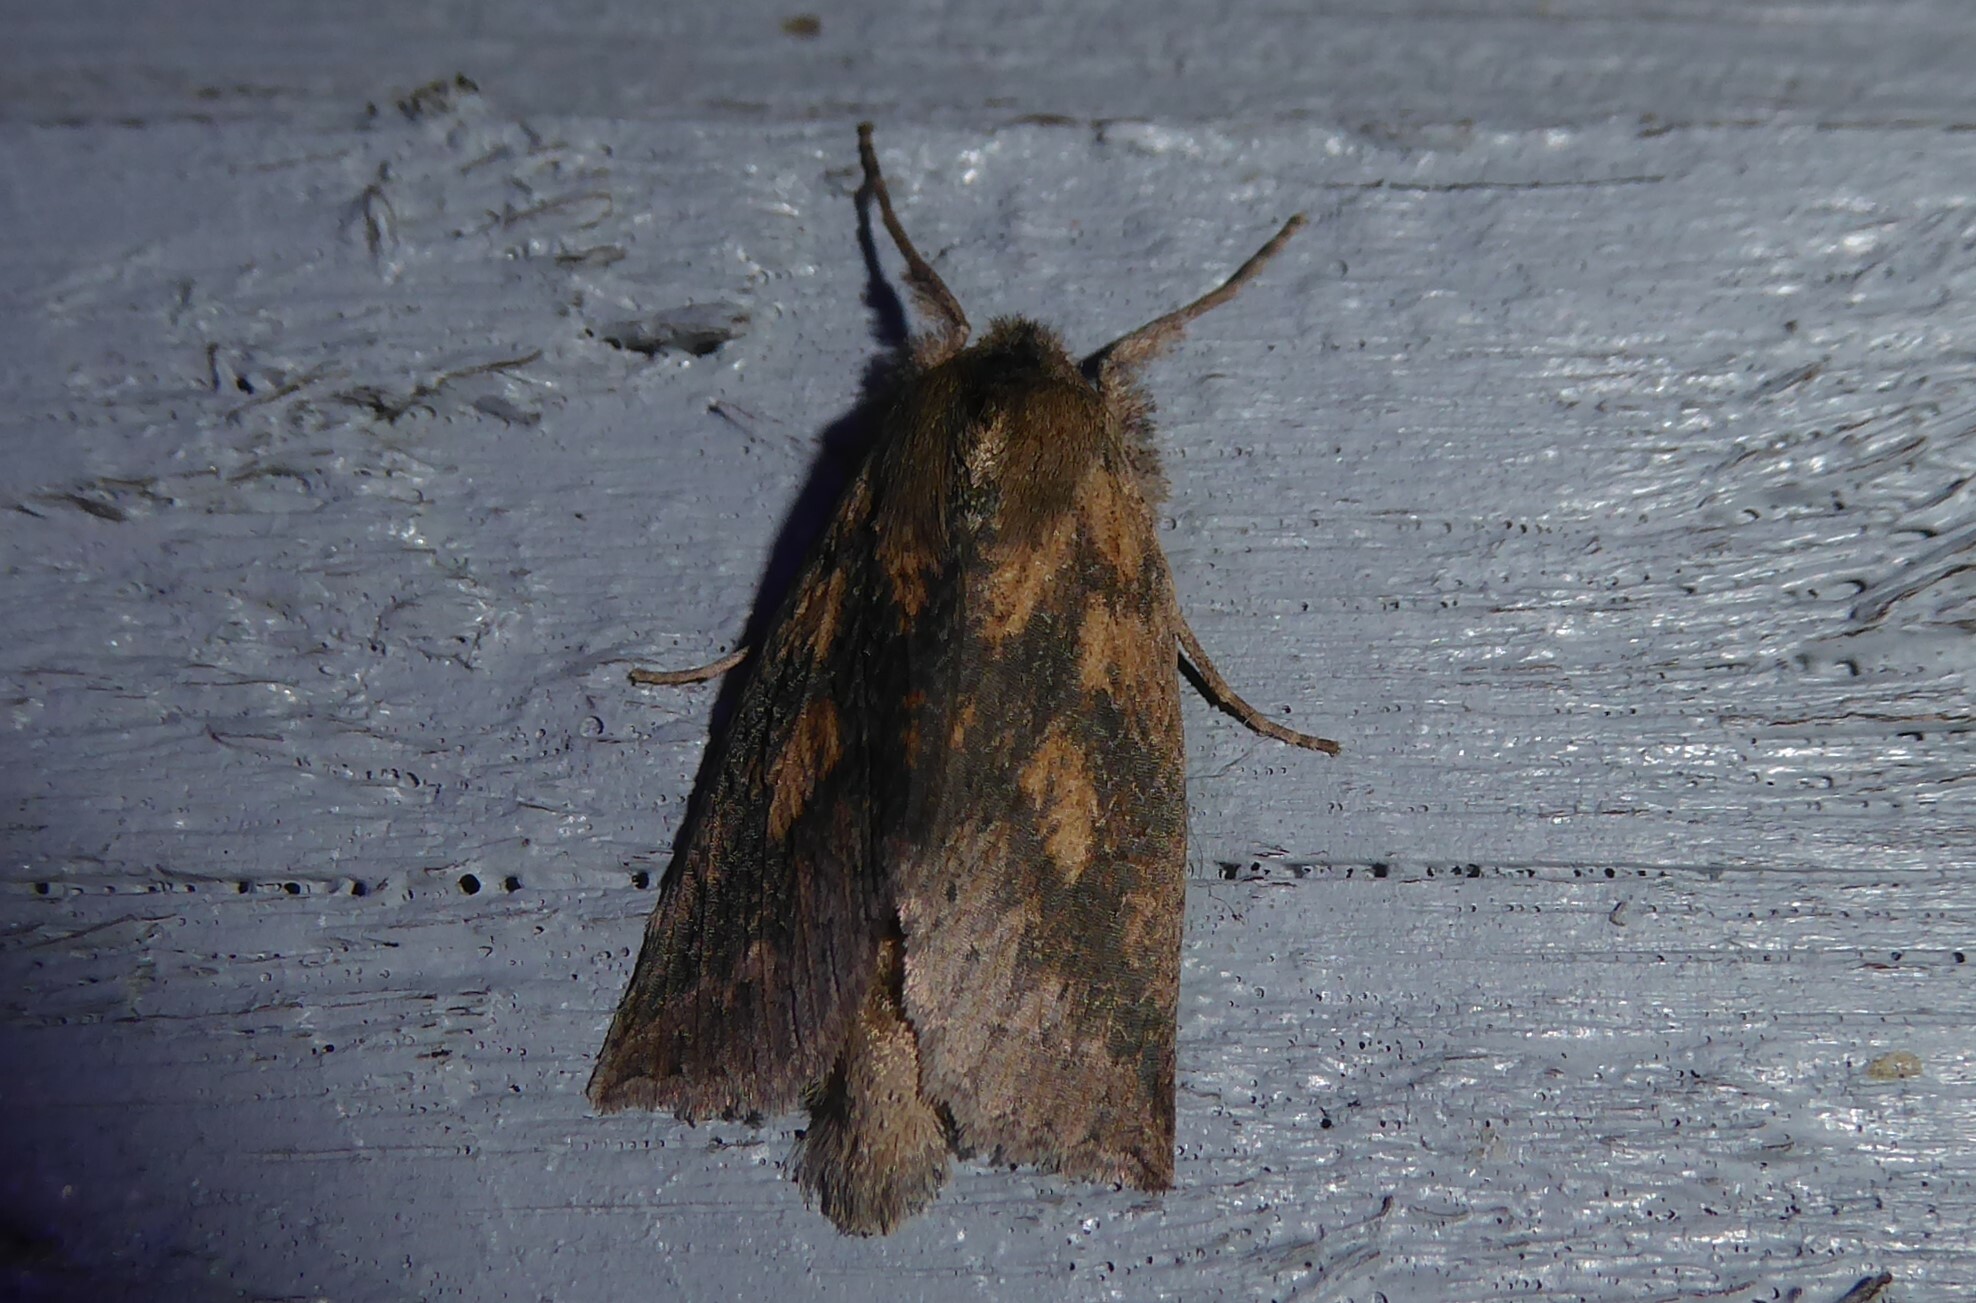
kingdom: Animalia
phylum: Arthropoda
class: Insecta
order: Lepidoptera
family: Geometridae
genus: Declana
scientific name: Declana leptomera
